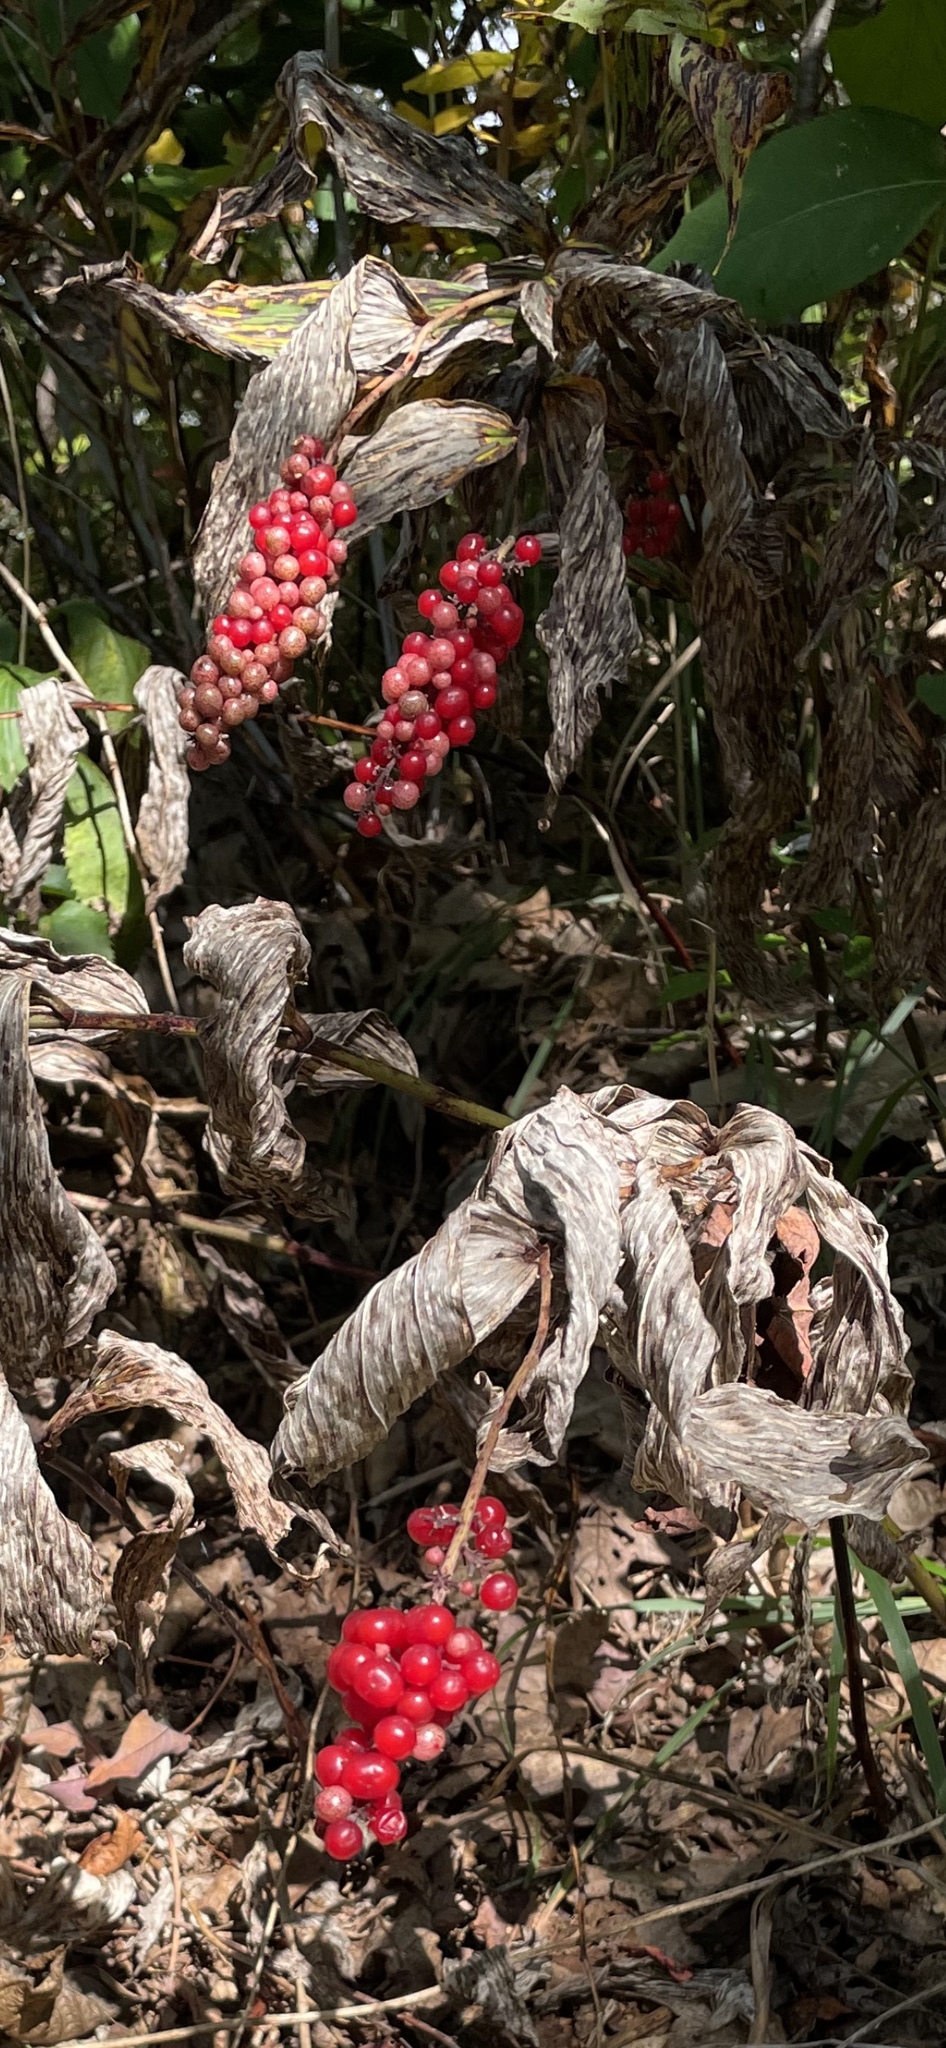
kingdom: Plantae
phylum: Tracheophyta
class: Liliopsida
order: Asparagales
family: Asparagaceae
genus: Maianthemum
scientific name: Maianthemum racemosum
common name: False spikenard
